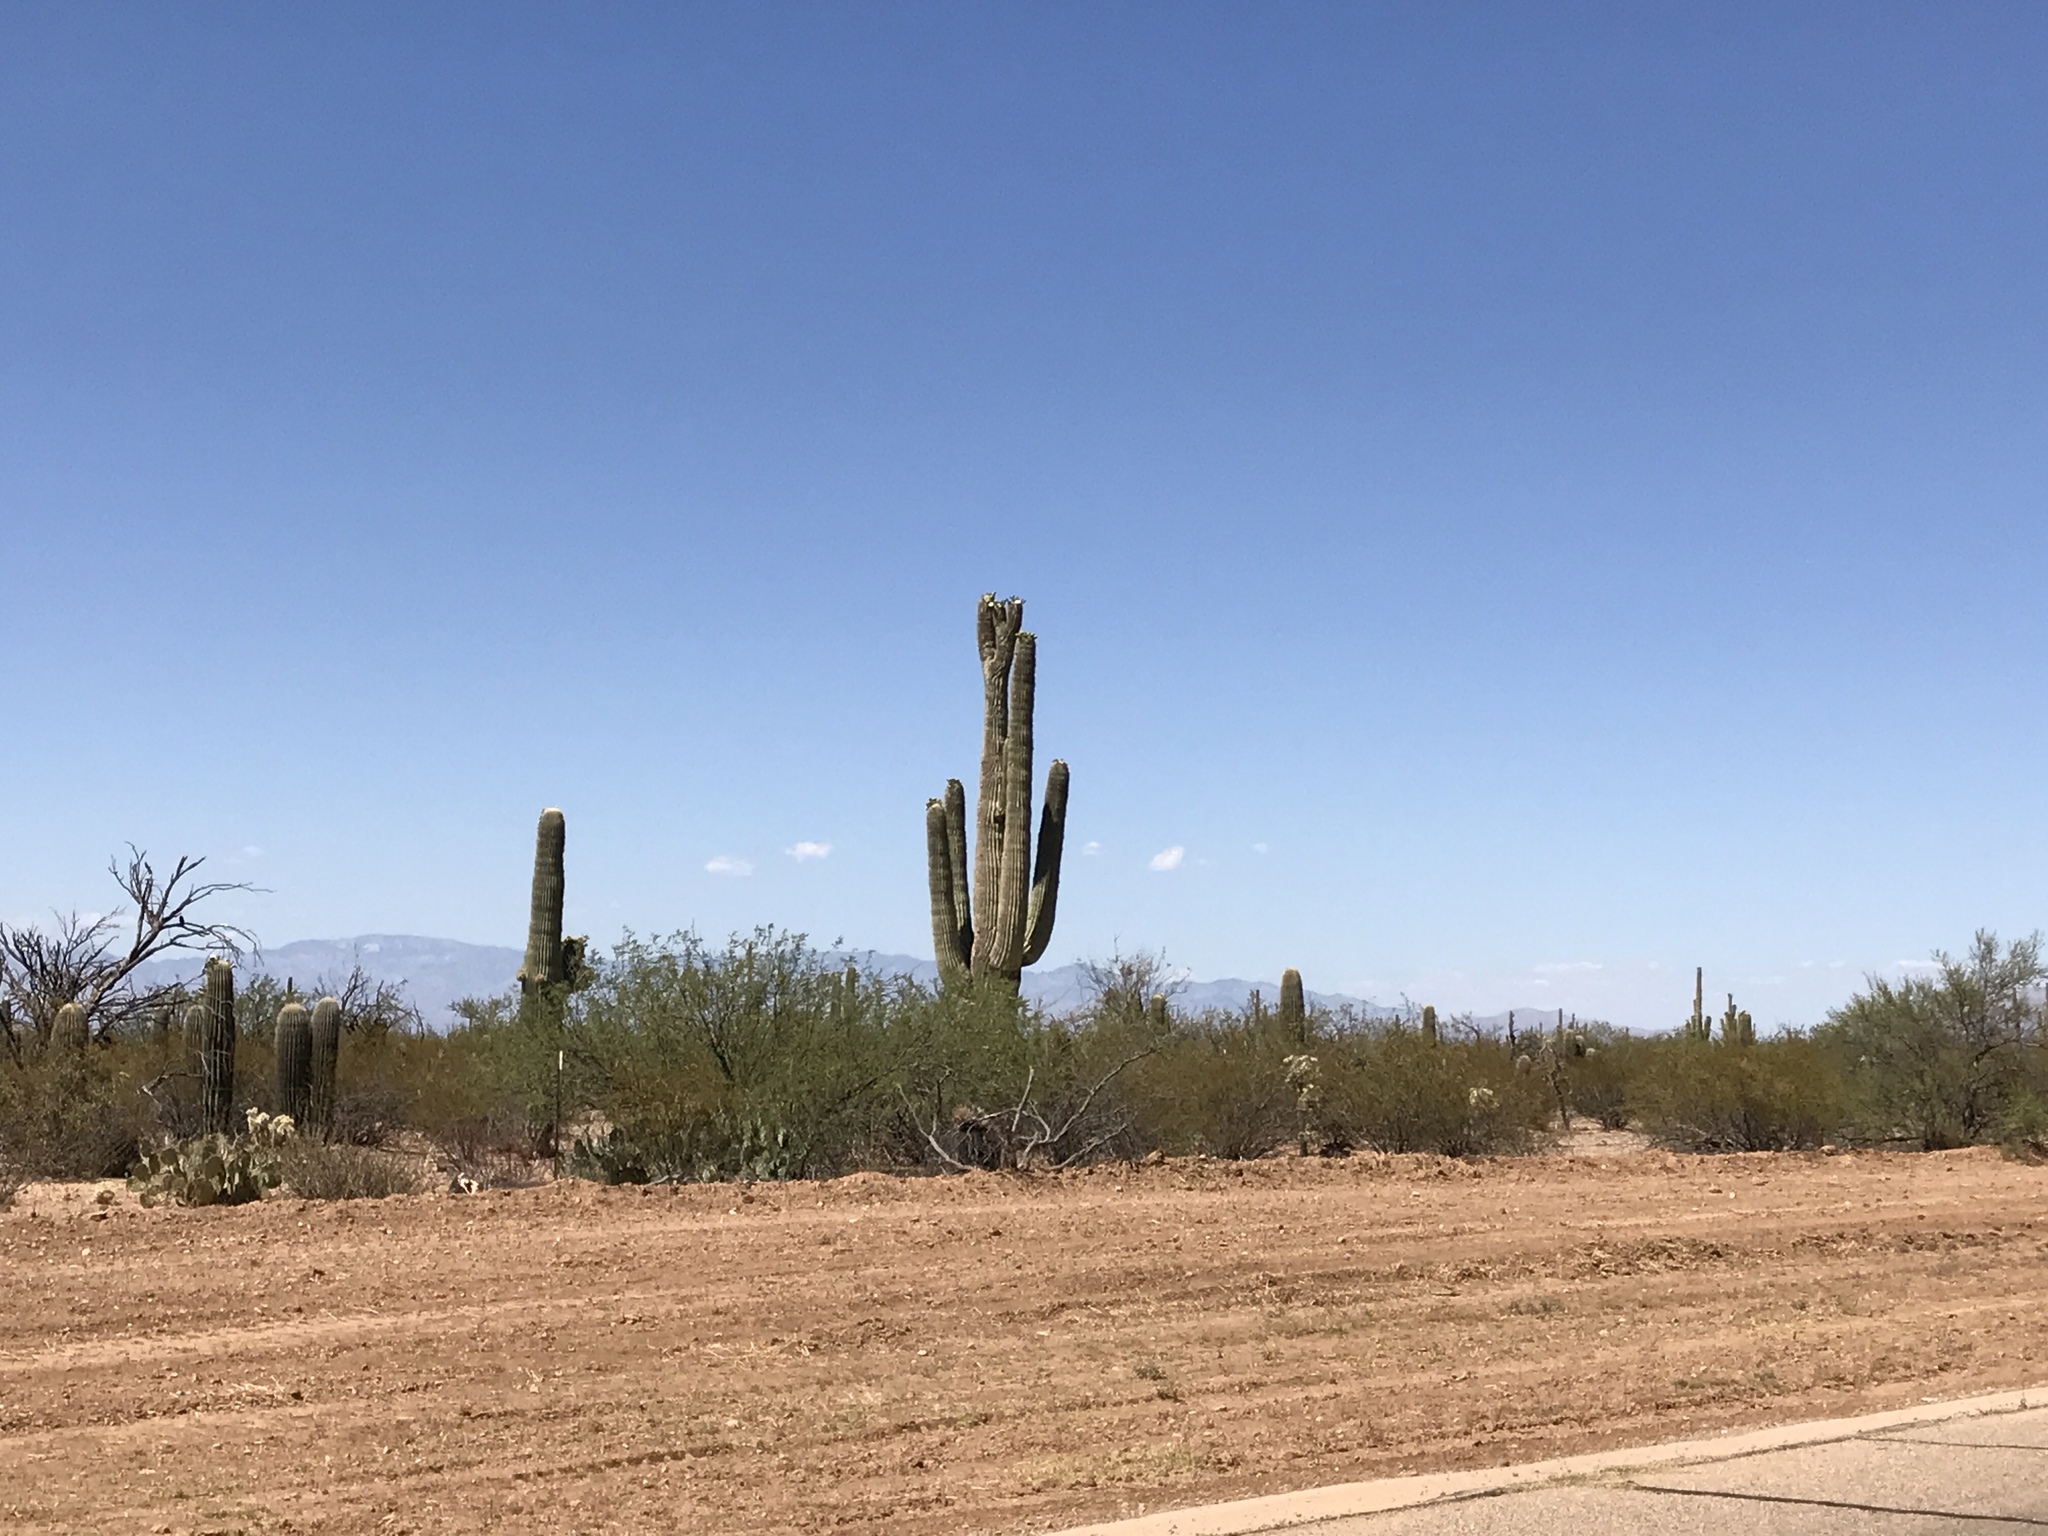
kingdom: Plantae
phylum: Tracheophyta
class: Magnoliopsida
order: Caryophyllales
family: Cactaceae
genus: Carnegiea
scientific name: Carnegiea gigantea
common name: Saguaro
